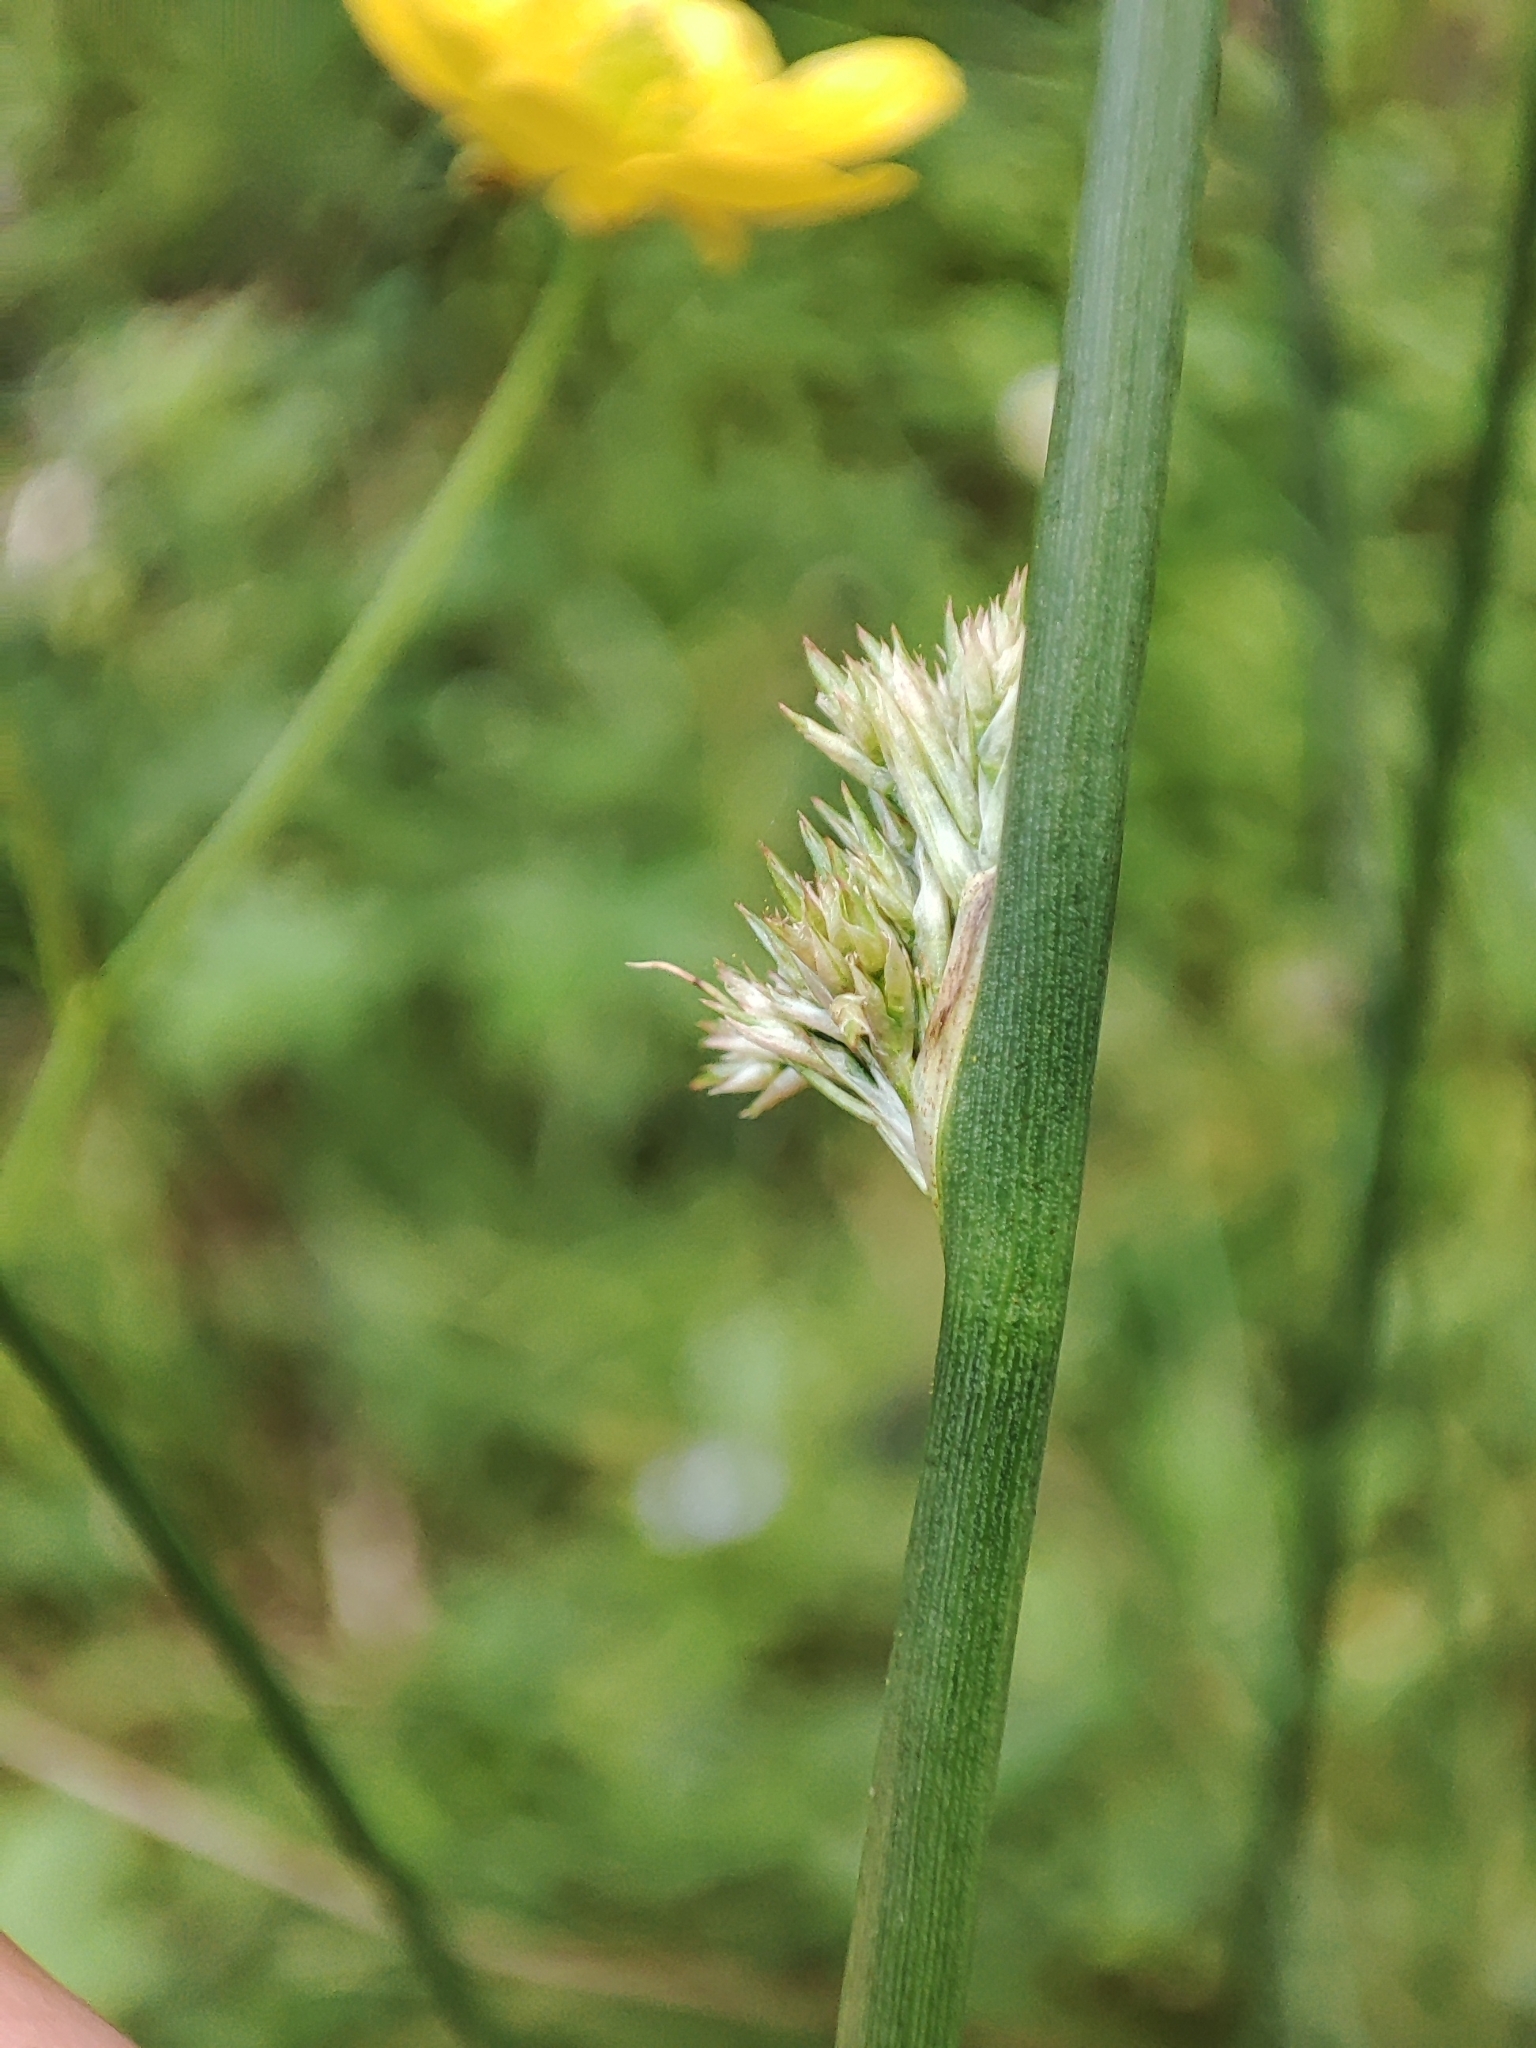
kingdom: Plantae
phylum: Tracheophyta
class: Liliopsida
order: Poales
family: Juncaceae
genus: Juncus
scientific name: Juncus effusus
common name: Soft rush
